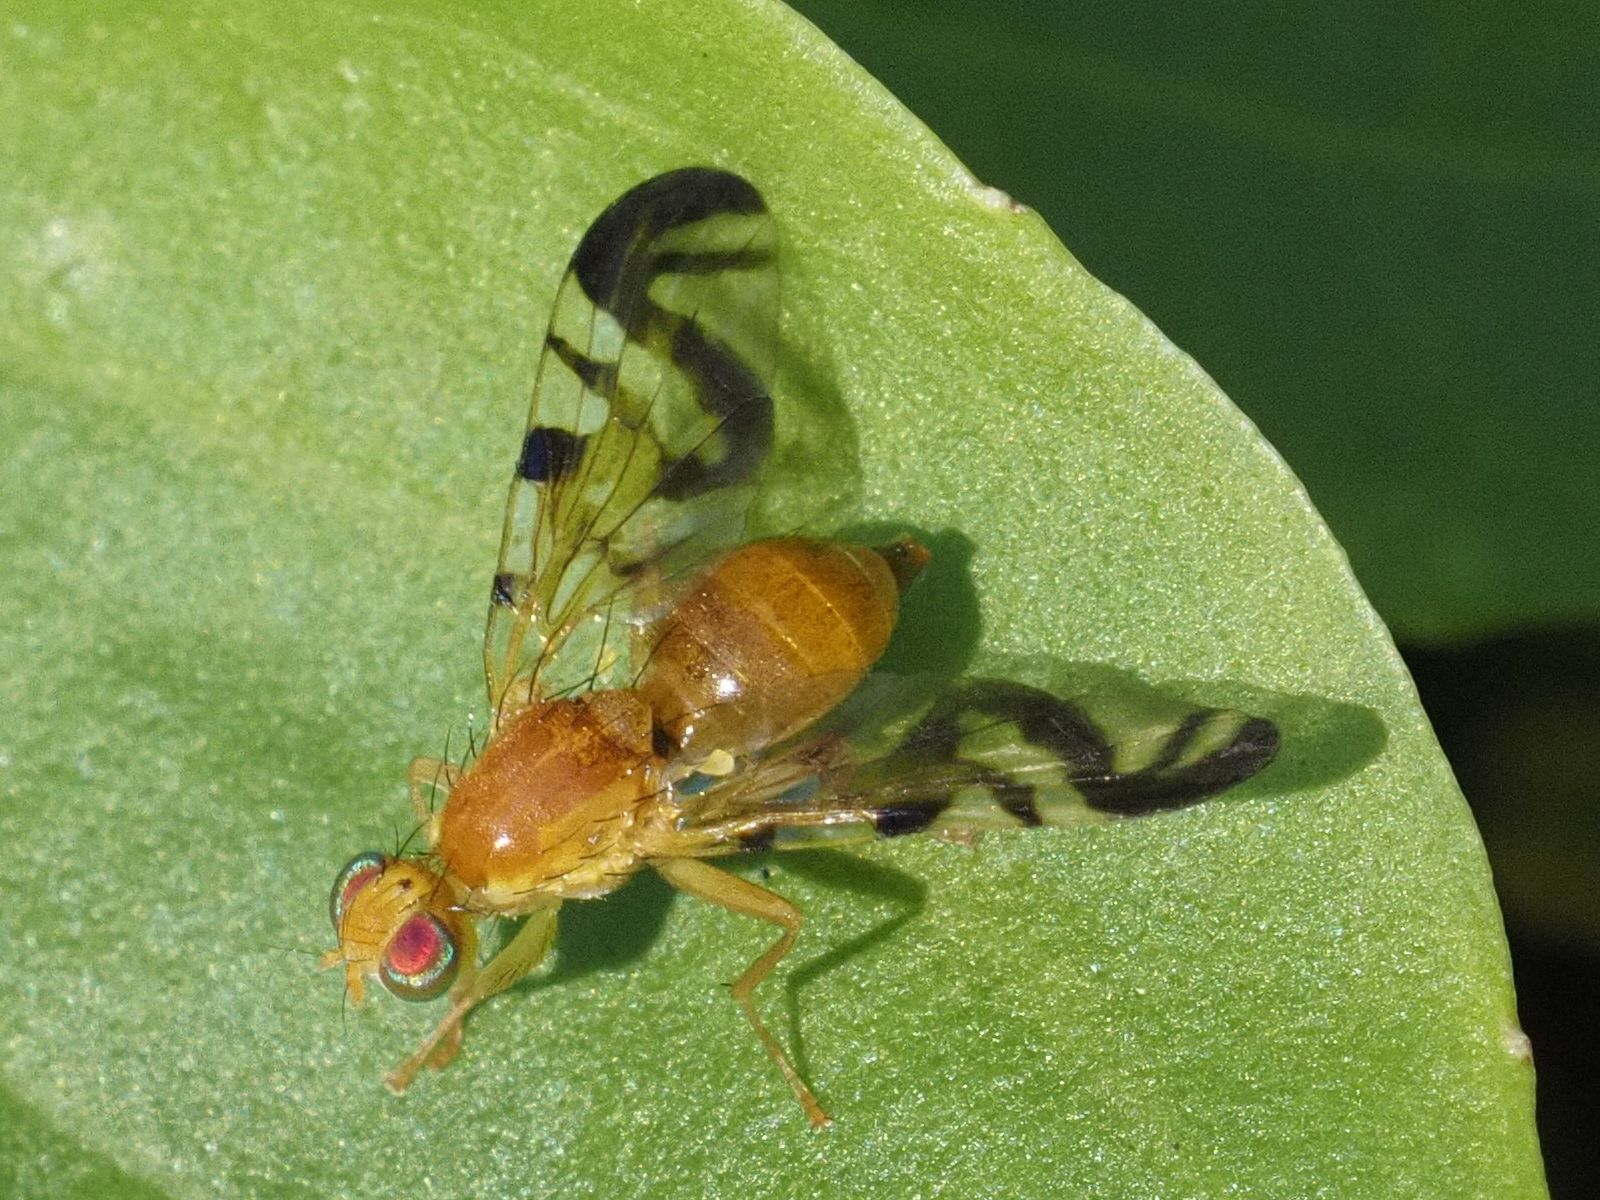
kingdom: Animalia
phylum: Arthropoda
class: Insecta
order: Diptera
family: Tephritidae
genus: Acidia
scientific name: Acidia cognata
